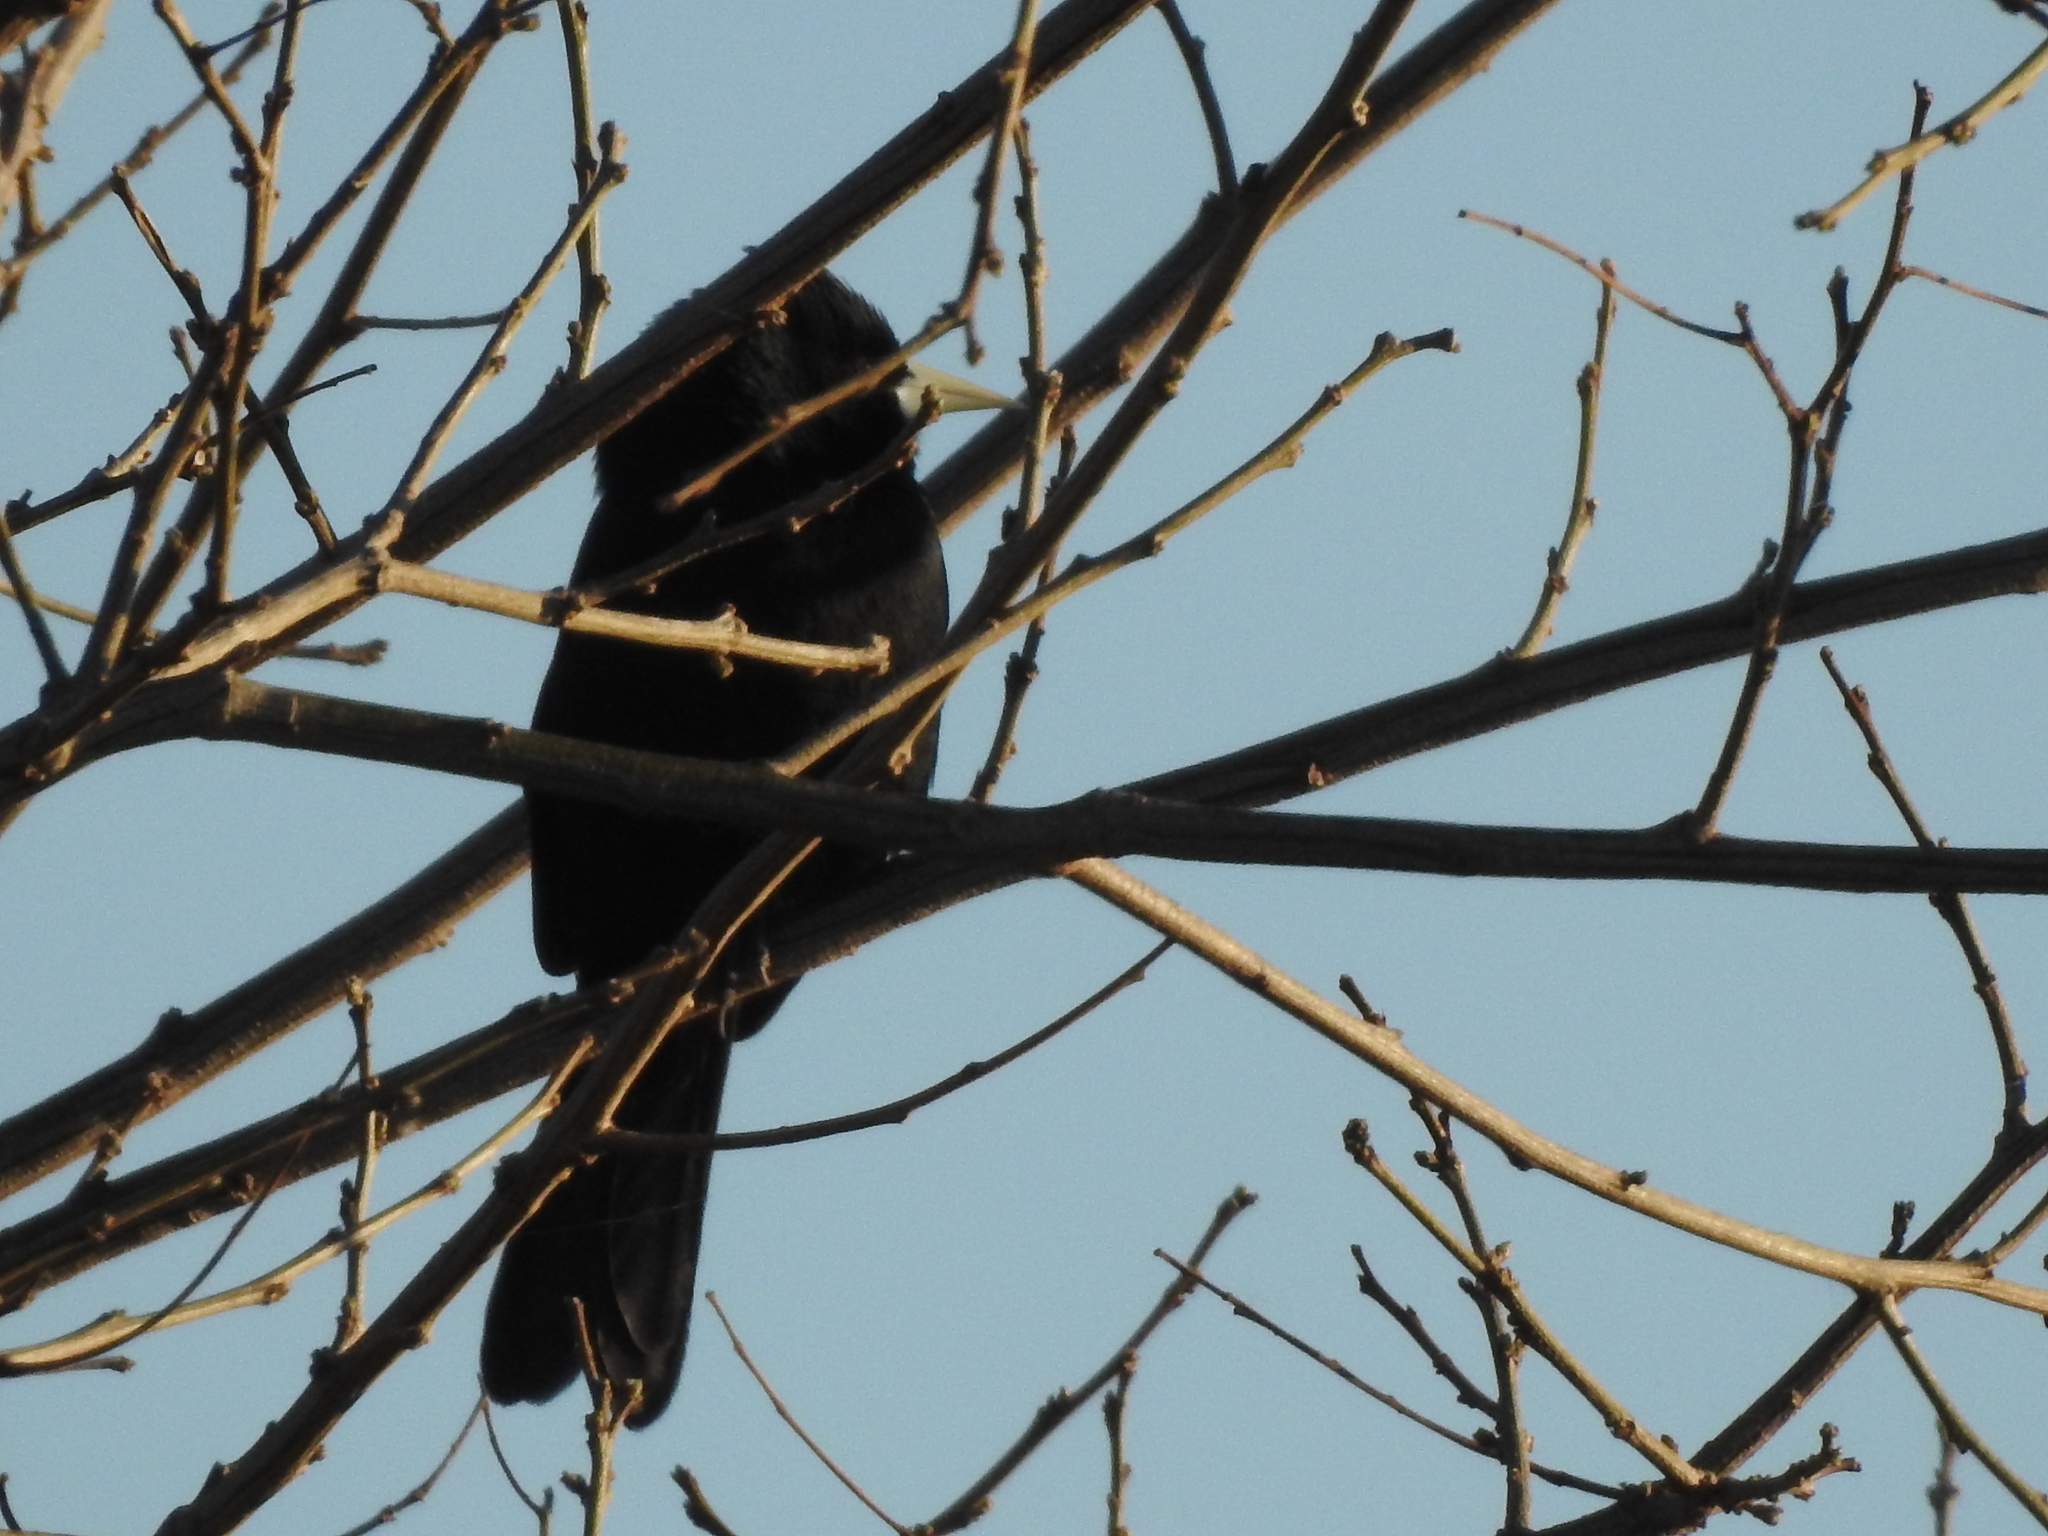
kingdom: Animalia
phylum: Chordata
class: Aves
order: Passeriformes
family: Icteridae
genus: Cacicus
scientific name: Cacicus solitarius
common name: Solitary cacique
